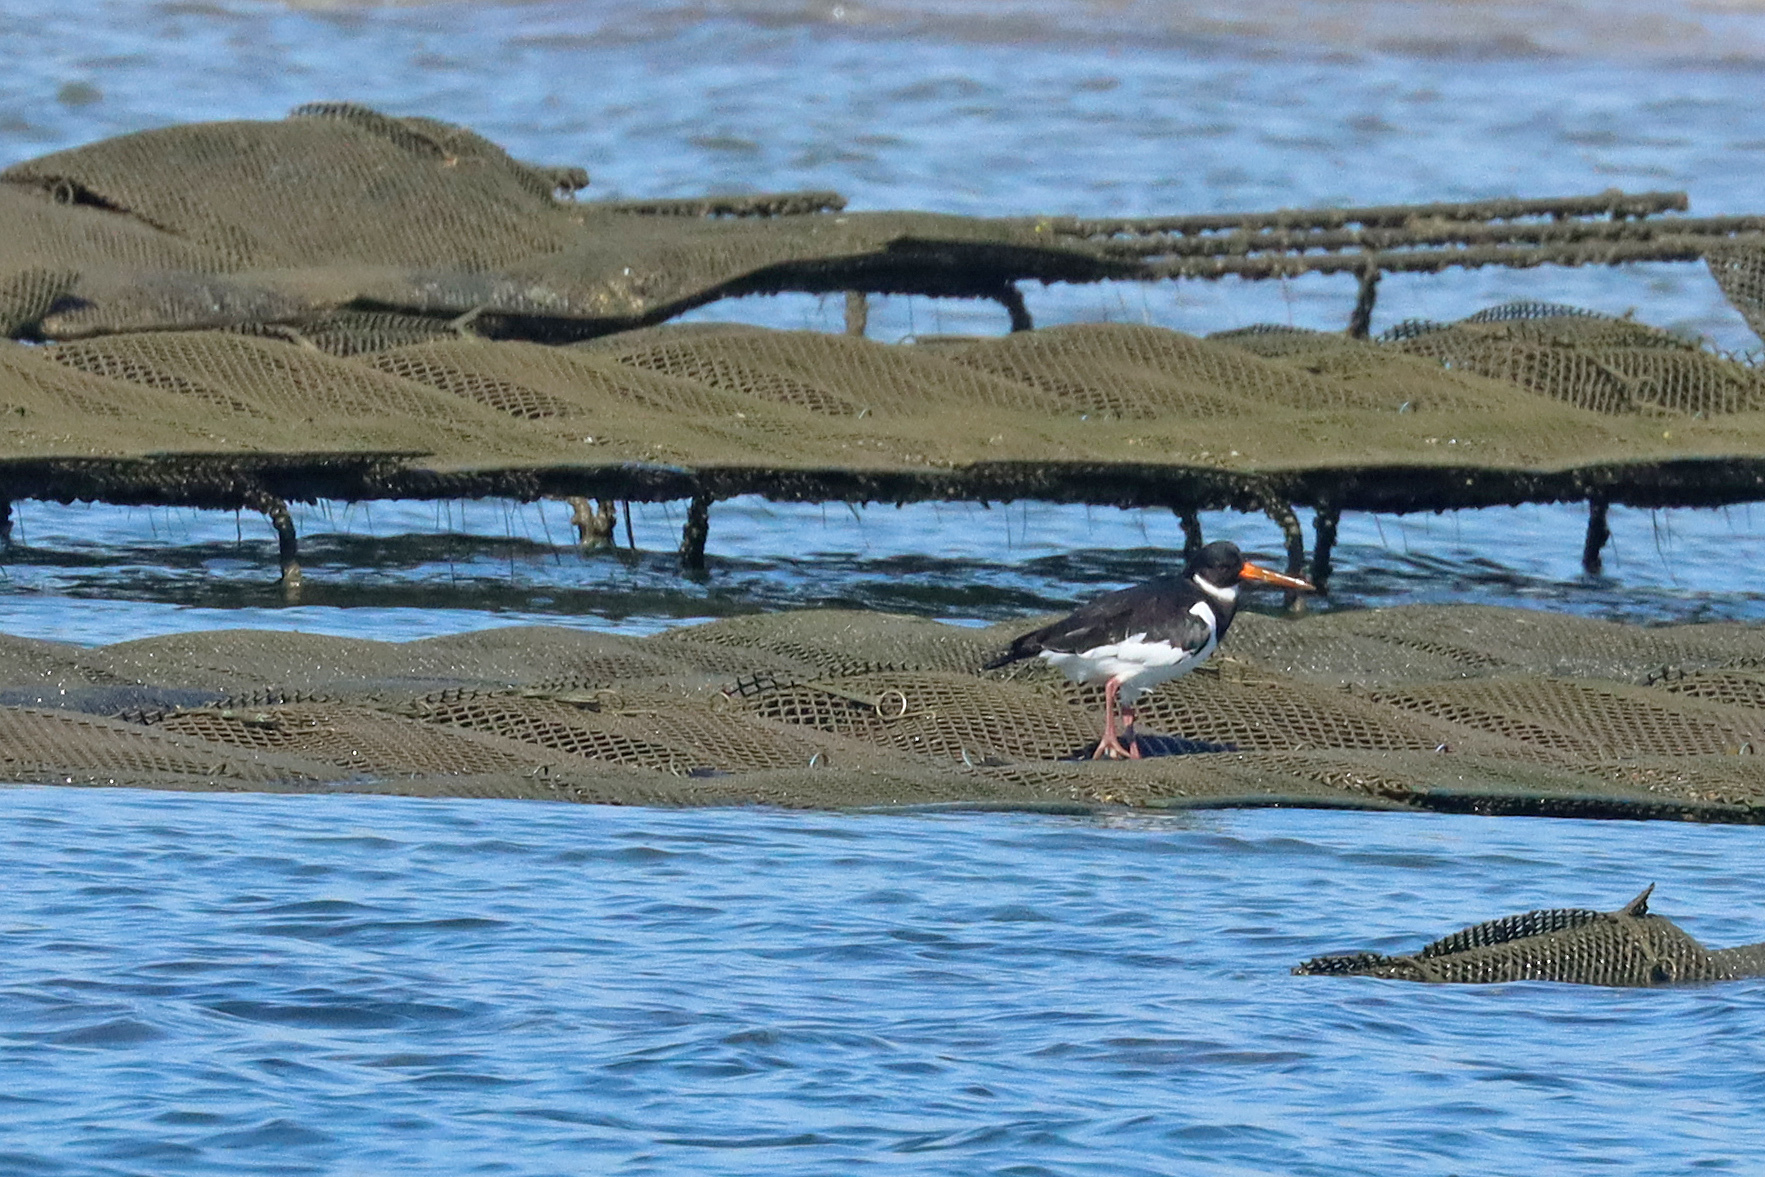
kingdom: Animalia
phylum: Chordata
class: Aves
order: Charadriiformes
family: Haematopodidae
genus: Haematopus
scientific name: Haematopus ostralegus
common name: Eurasian oystercatcher
